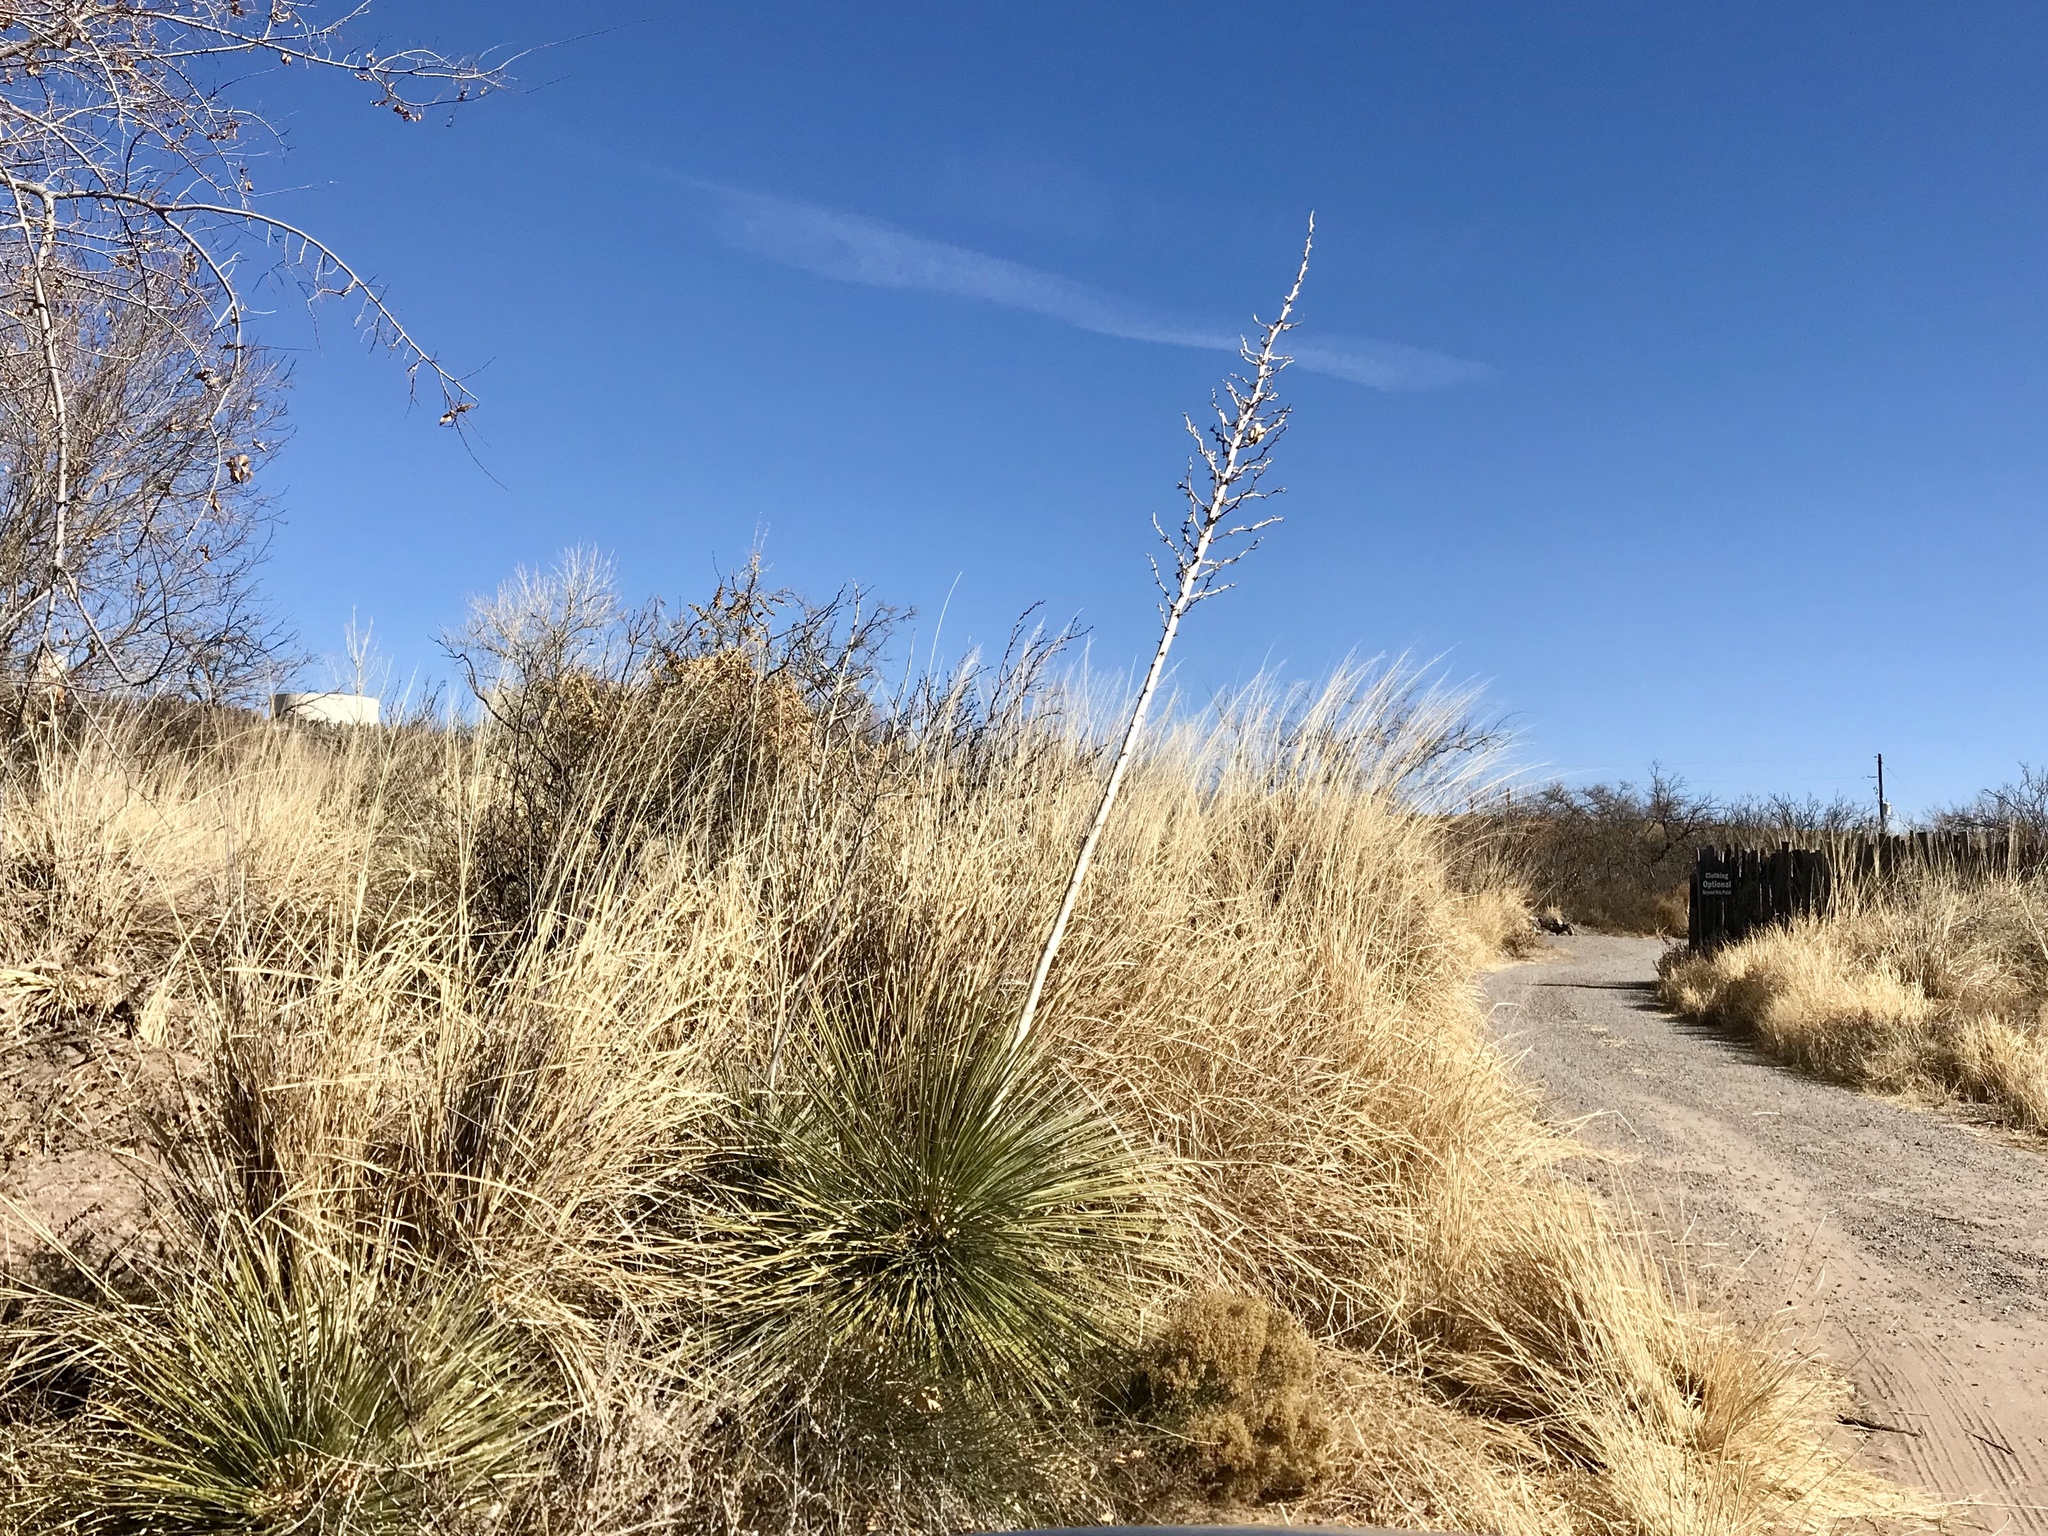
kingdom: Plantae
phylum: Tracheophyta
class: Liliopsida
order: Asparagales
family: Asparagaceae
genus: Yucca
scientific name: Yucca elata
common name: Palmella
